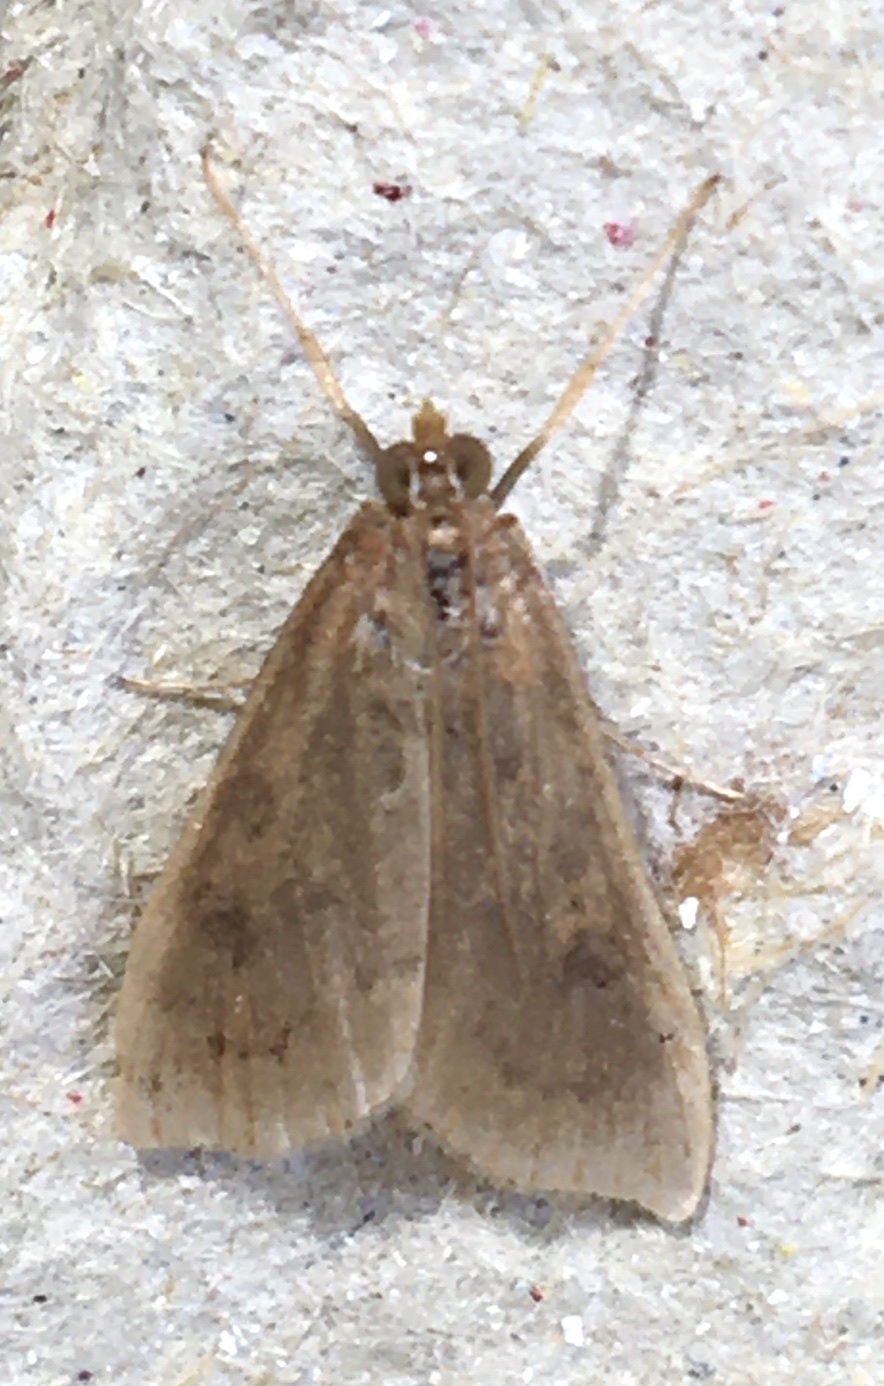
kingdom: Animalia
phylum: Arthropoda
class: Insecta
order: Lepidoptera
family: Crambidae
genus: Udea
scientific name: Udea ferrugalis
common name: Rusty dot
